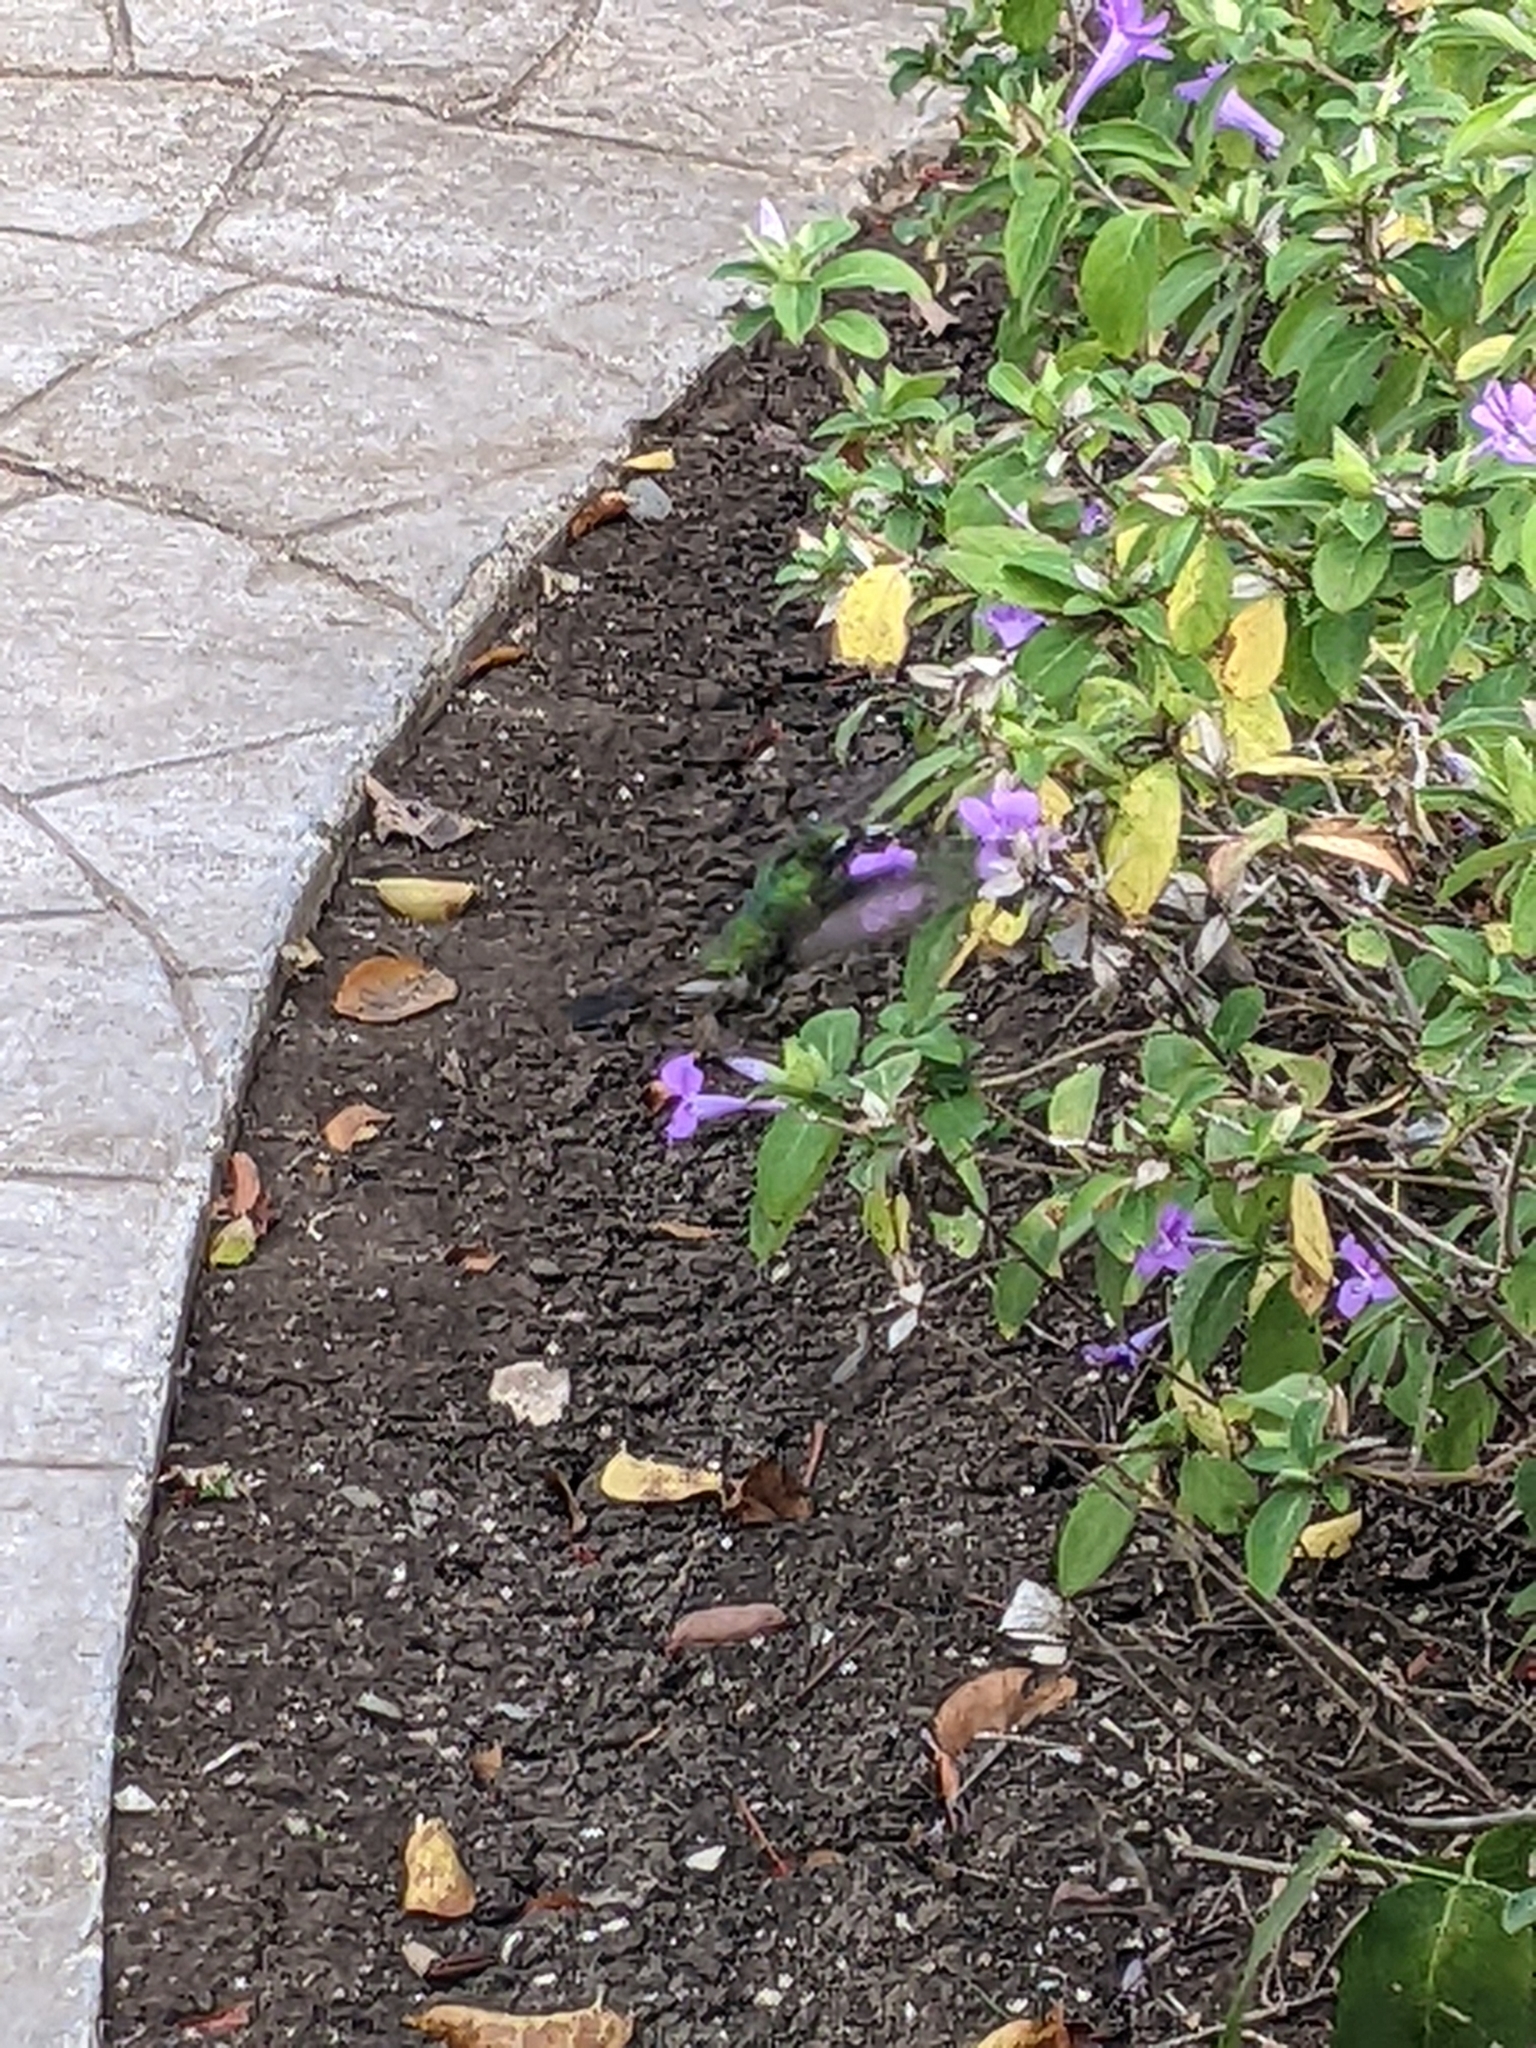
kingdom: Animalia
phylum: Chordata
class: Aves
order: Apodiformes
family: Trochilidae
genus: Riccordia
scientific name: Riccordia ricordii
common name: Cuban emerald
